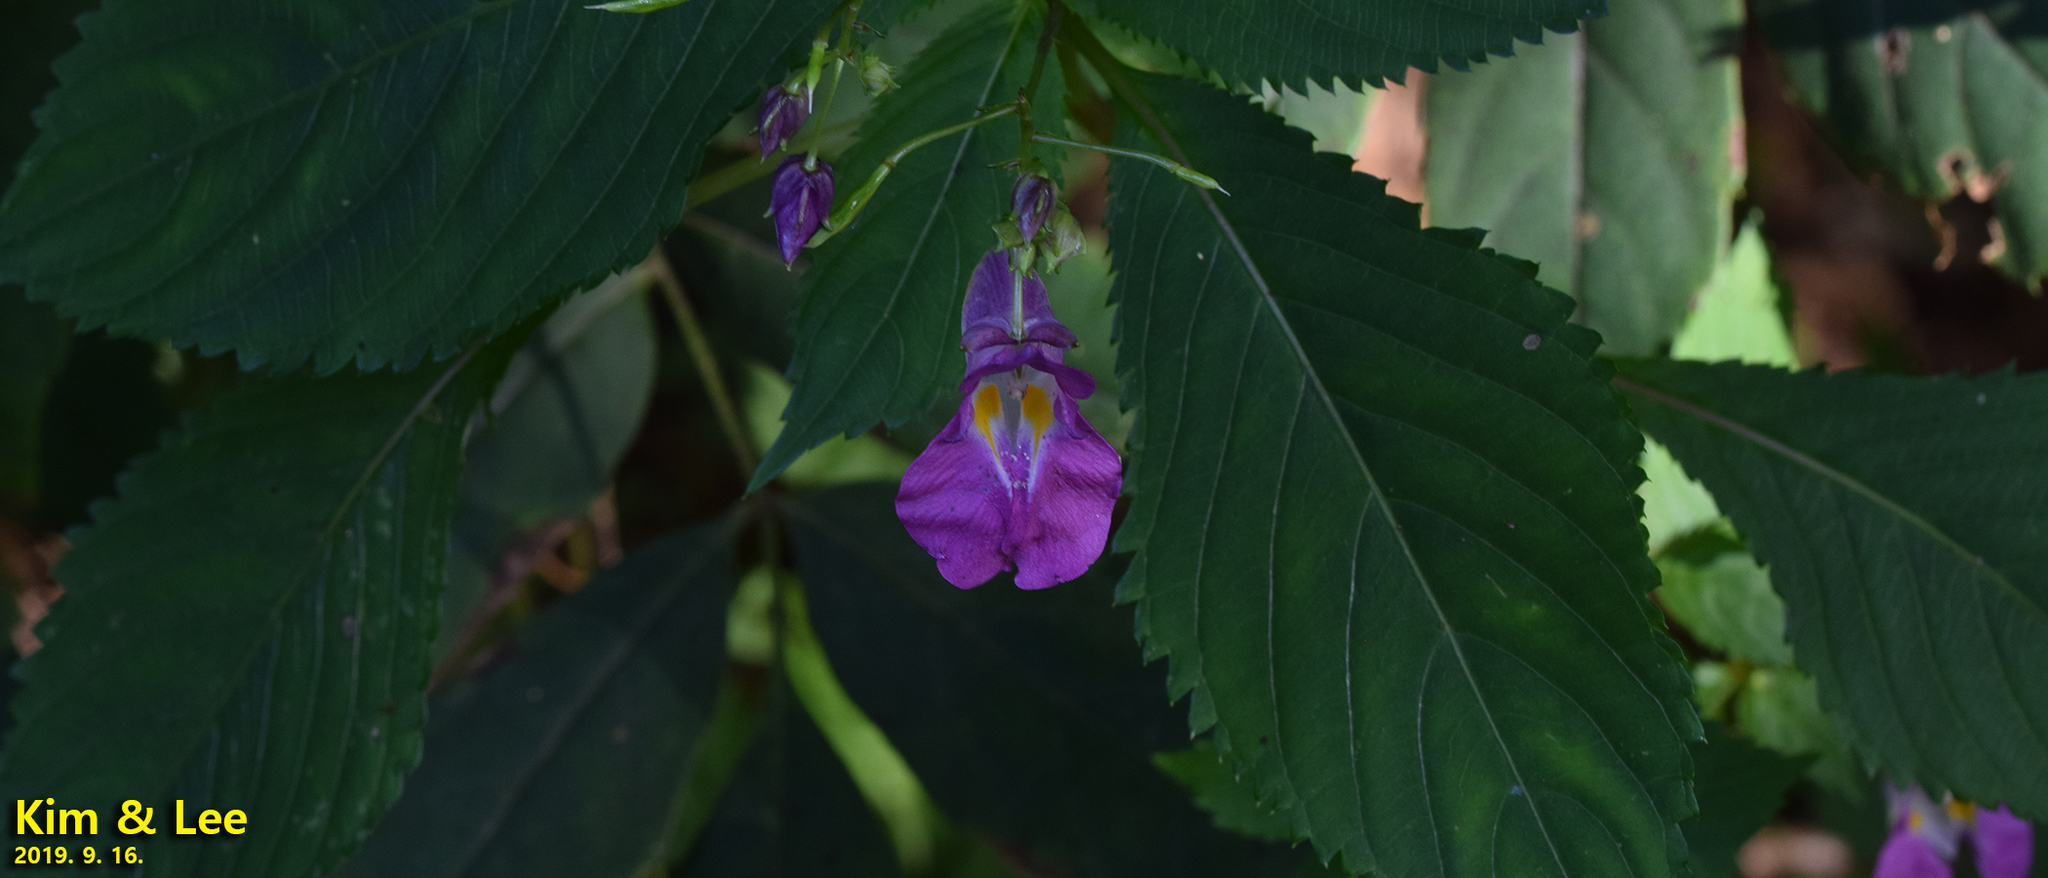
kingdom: Plantae
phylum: Tracheophyta
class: Magnoliopsida
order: Ericales
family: Balsaminaceae
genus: Impatiens
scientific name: Impatiens textorii
